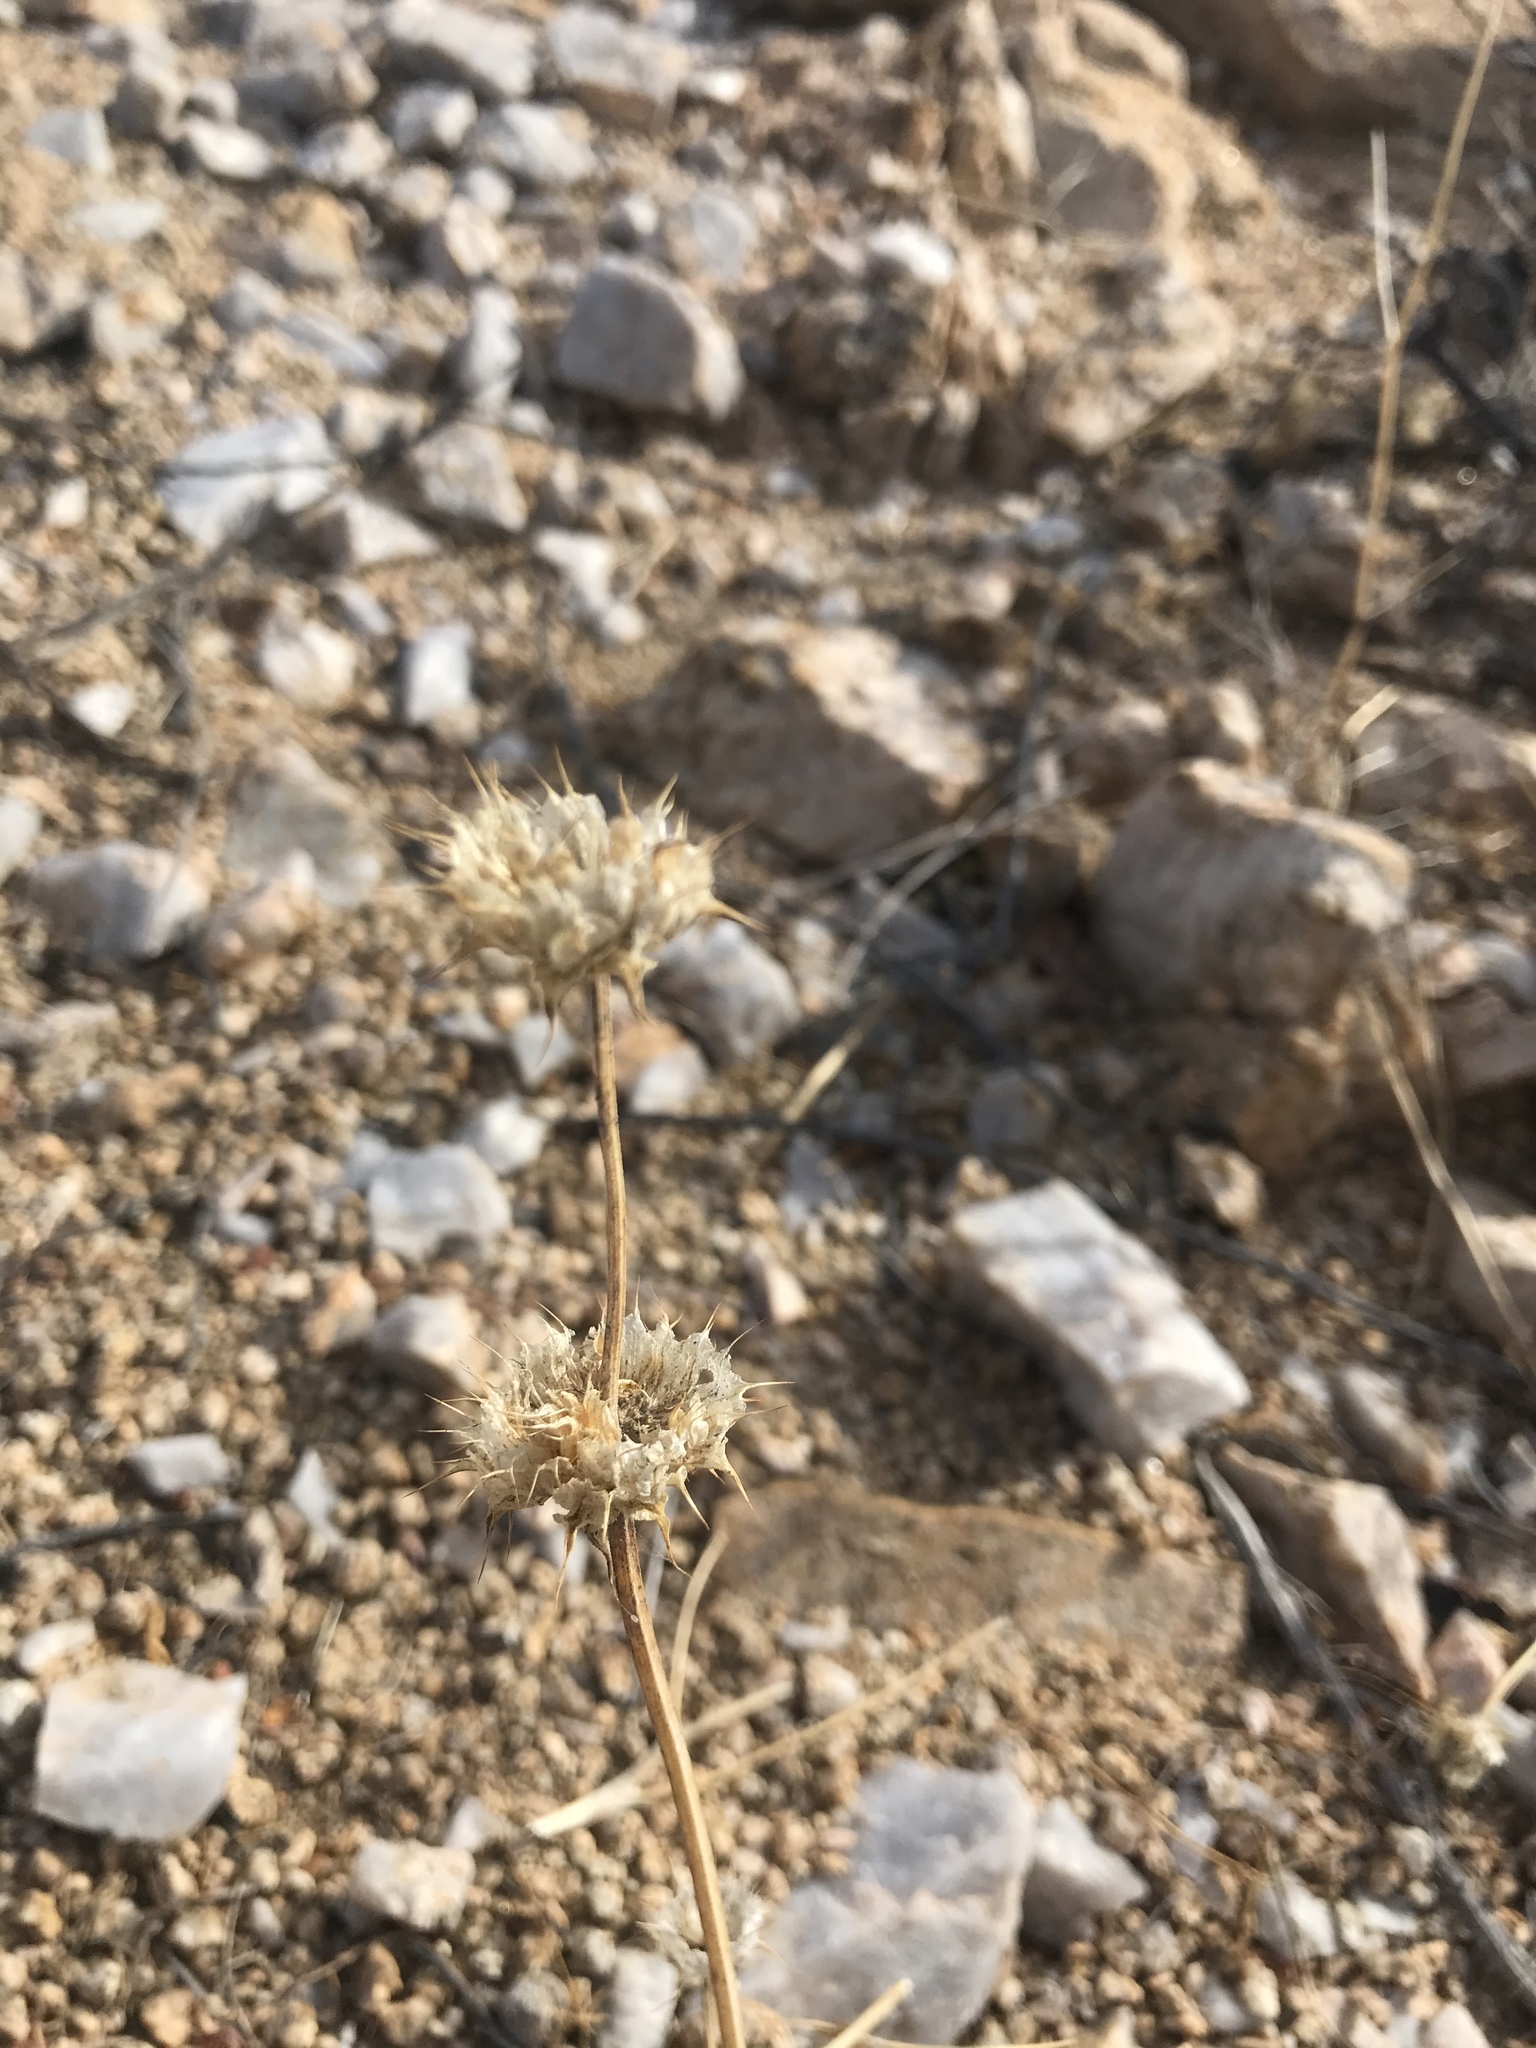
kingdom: Plantae
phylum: Tracheophyta
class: Magnoliopsida
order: Lamiales
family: Lamiaceae
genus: Salvia
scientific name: Salvia columbariae
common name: Chia
